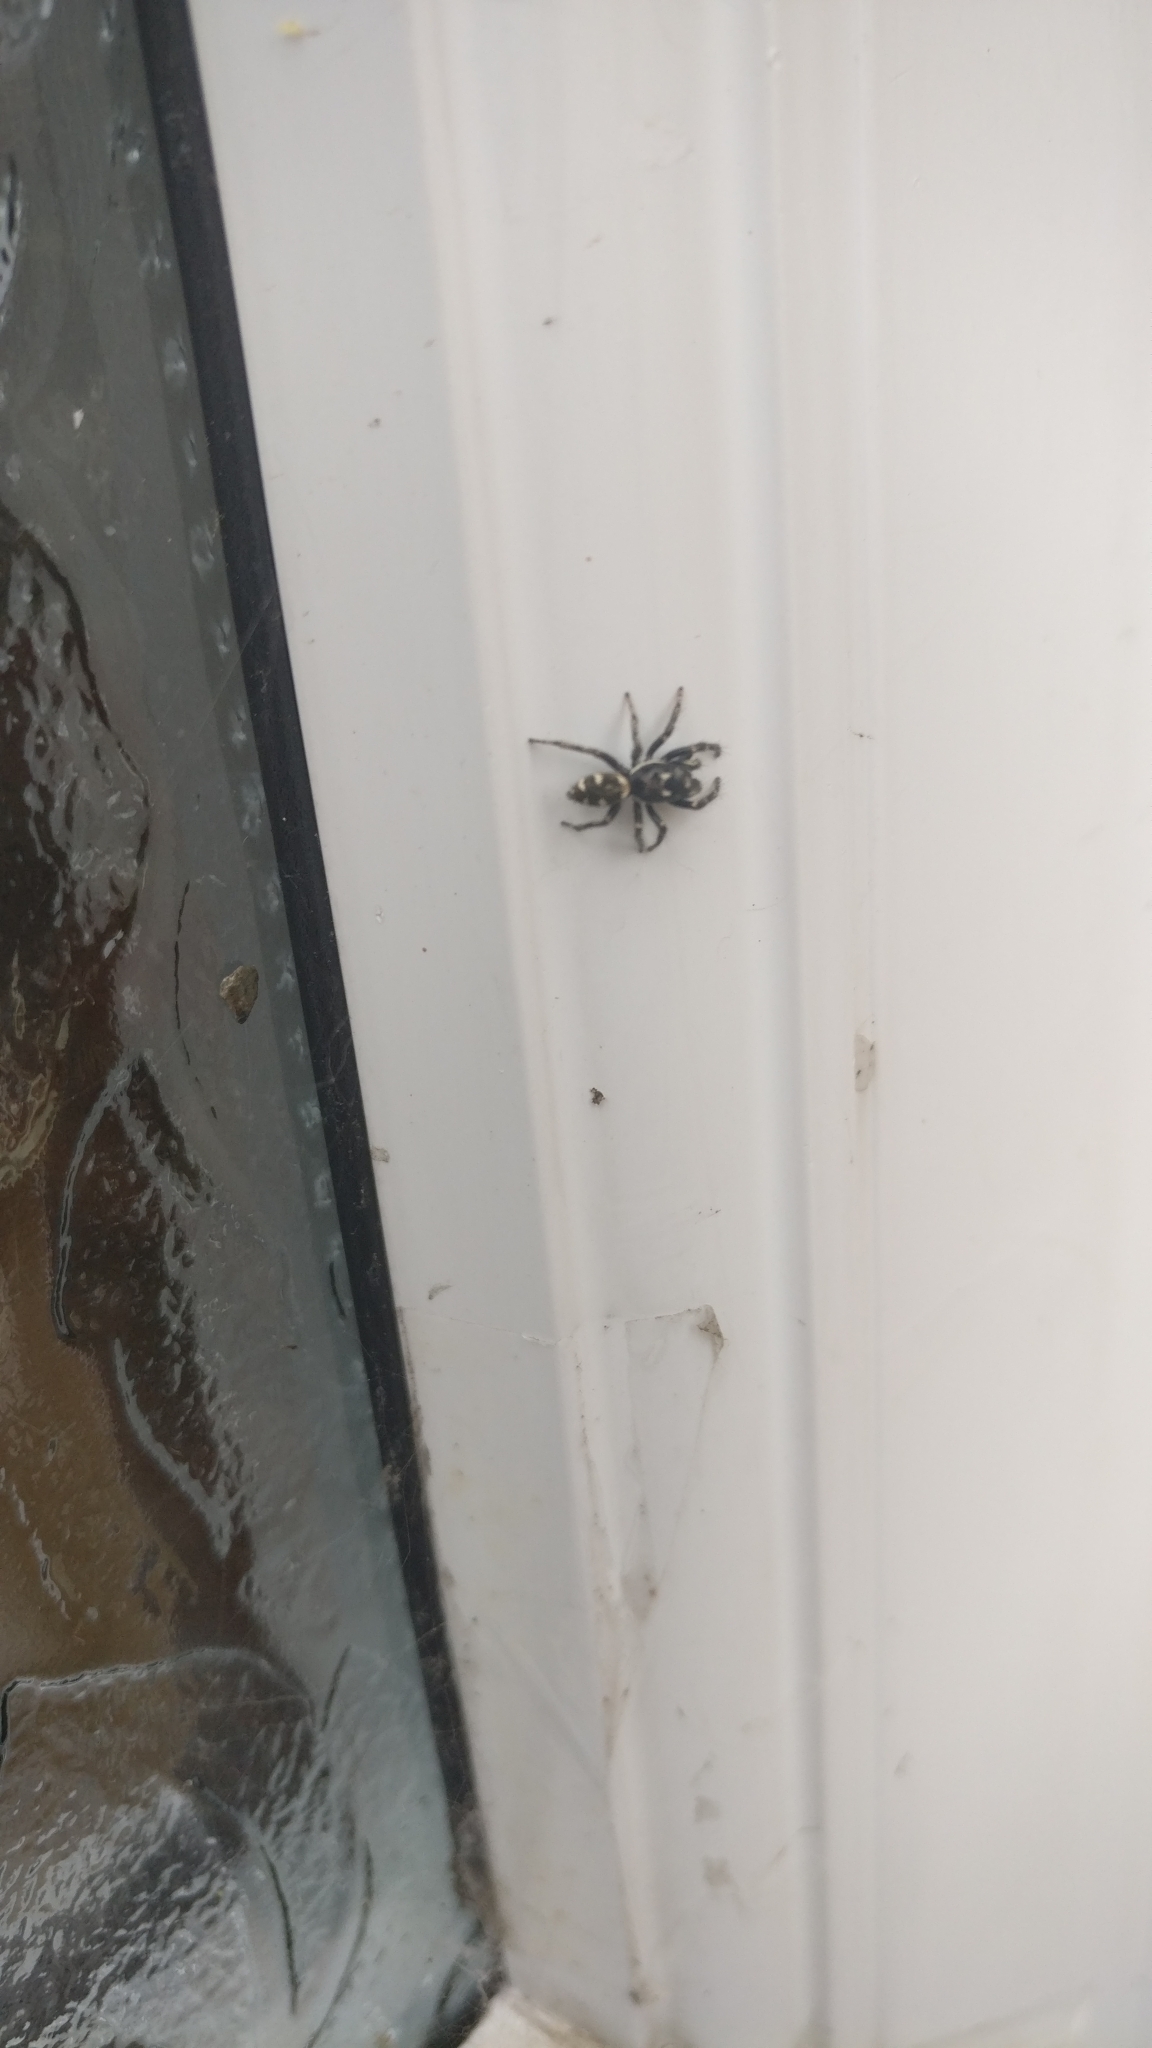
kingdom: Animalia
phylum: Arthropoda
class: Arachnida
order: Araneae
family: Salticidae
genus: Salticus
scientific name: Salticus scenicus
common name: Zebra jumper
